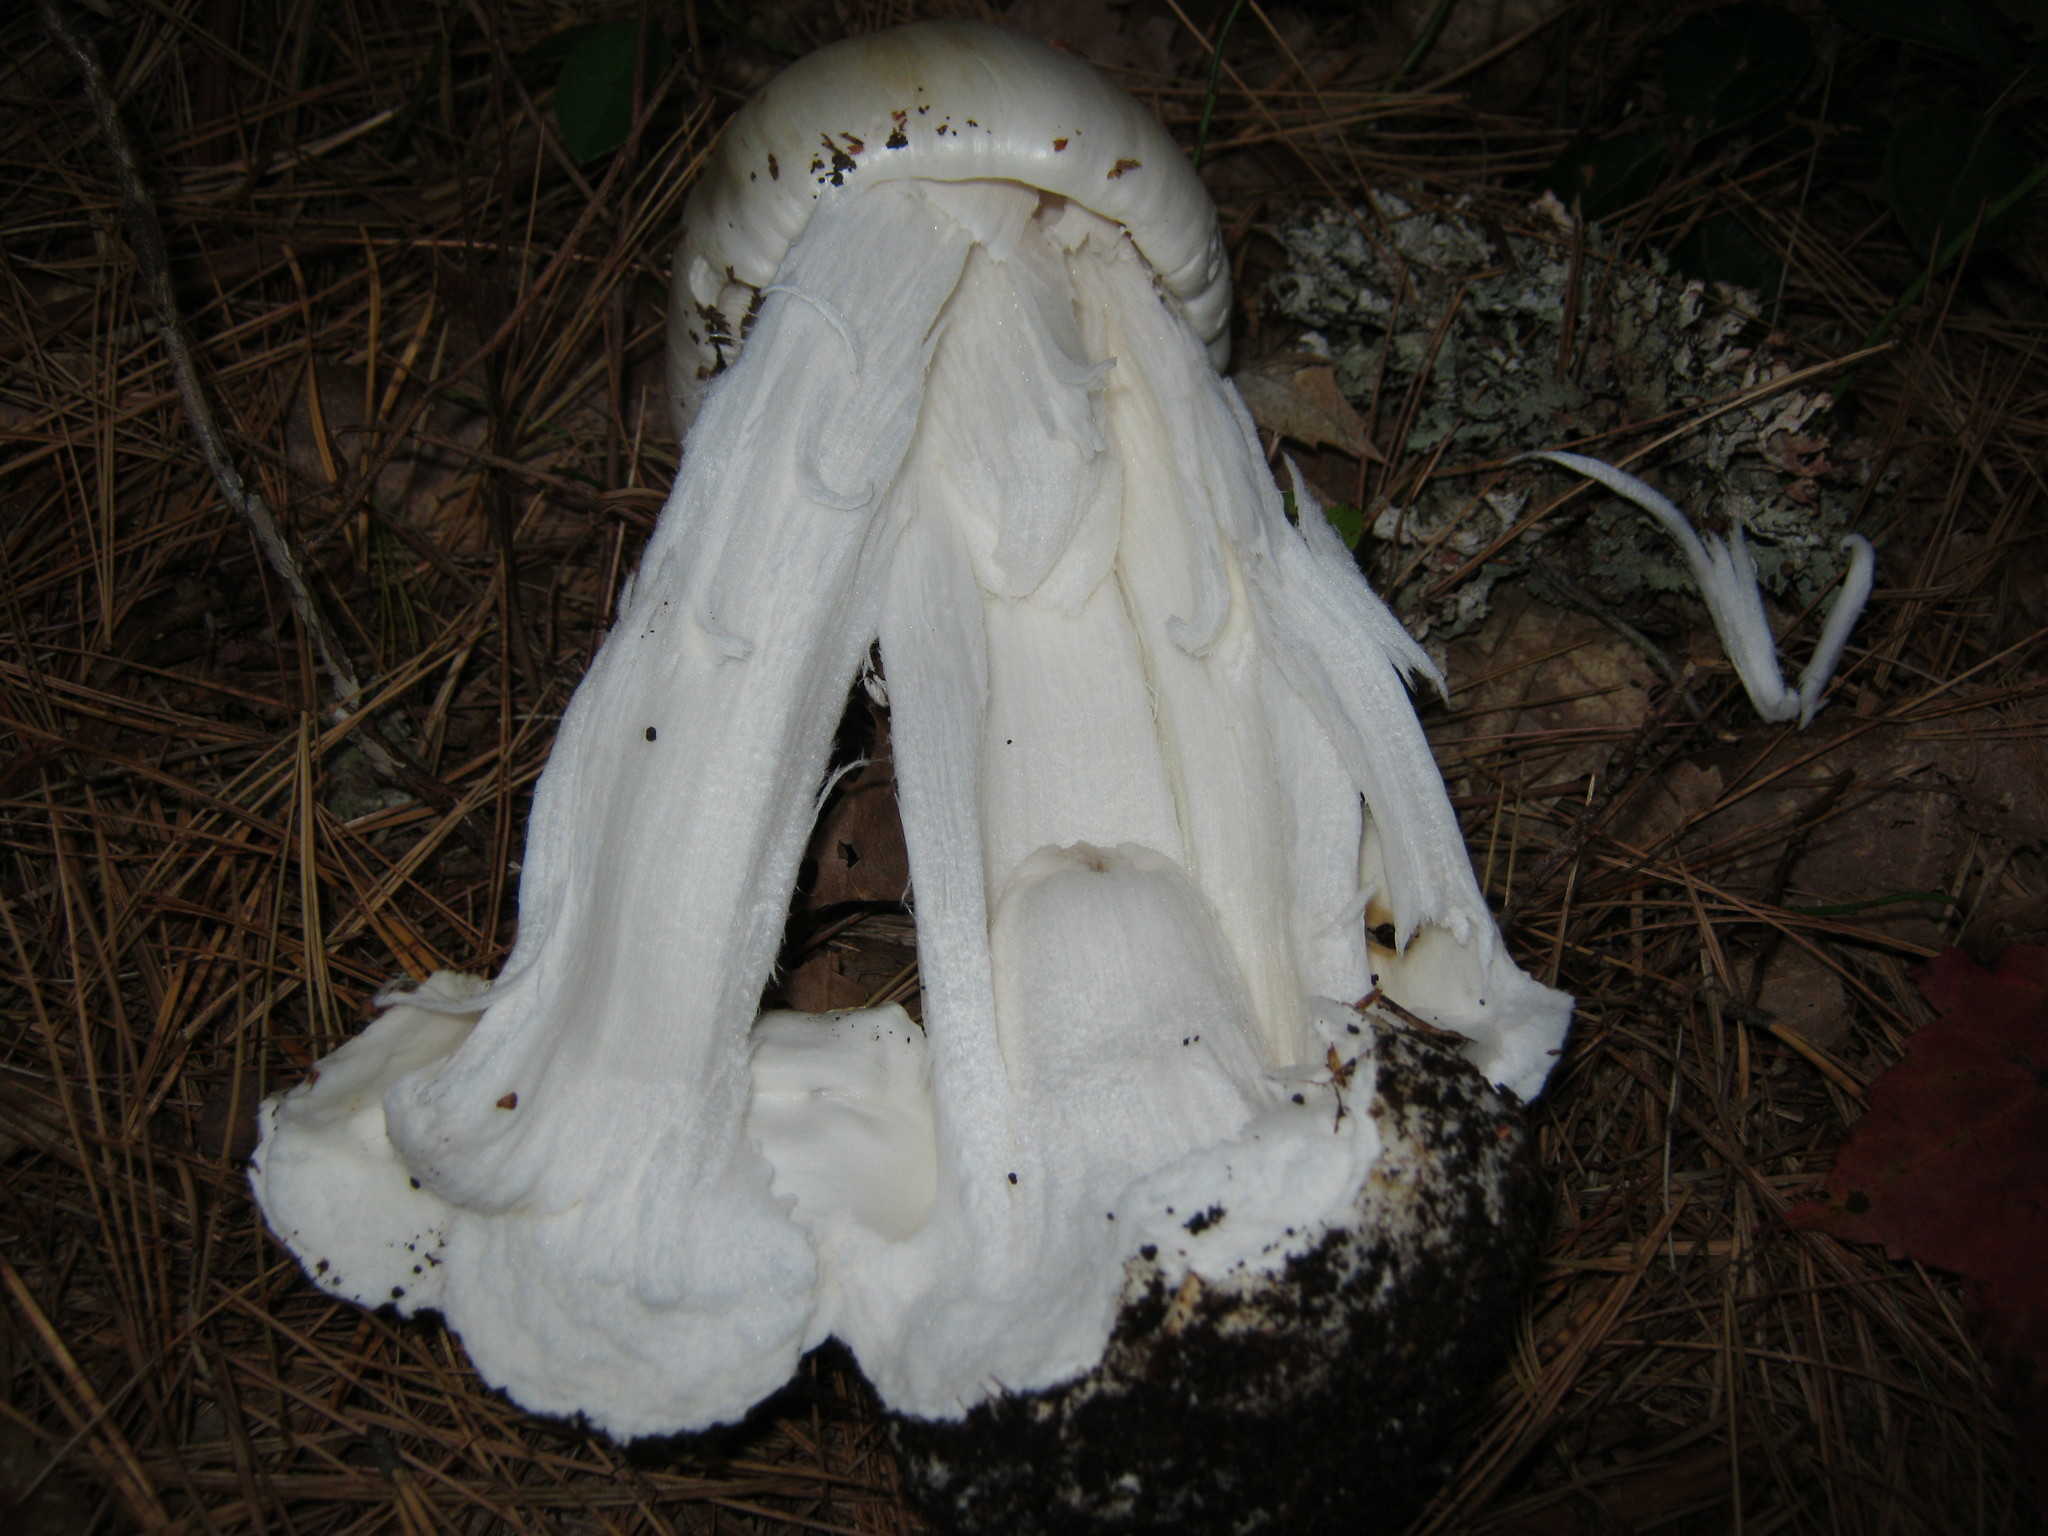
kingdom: Fungi
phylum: Basidiomycota
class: Agaricomycetes
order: Agaricales
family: Amanitaceae
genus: Amanita
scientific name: Amanita bisporigera
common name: Eastern north american destroying angel
